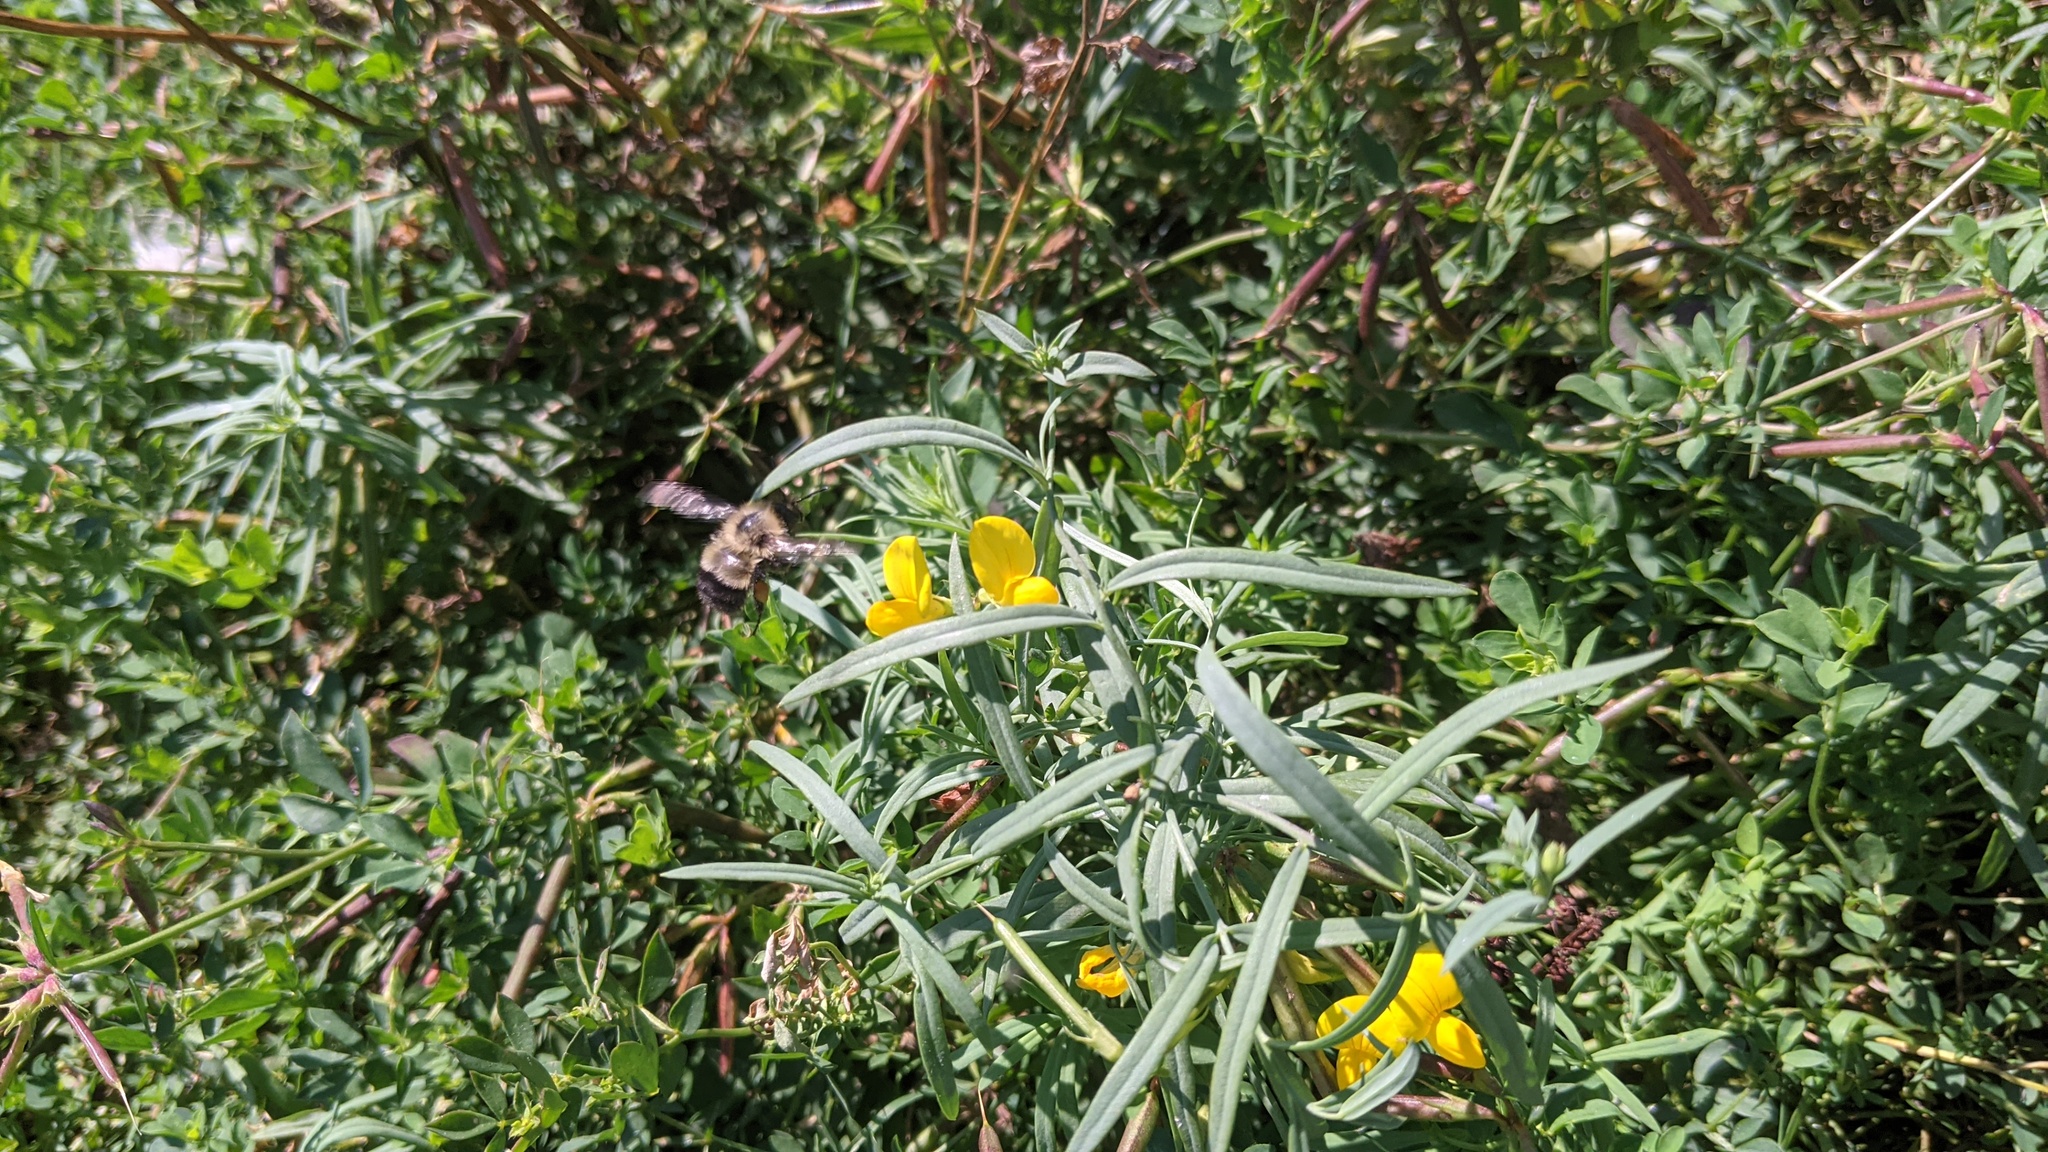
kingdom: Plantae
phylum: Tracheophyta
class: Magnoliopsida
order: Fabales
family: Fabaceae
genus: Lotus
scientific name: Lotus corniculatus
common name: Common bird's-foot-trefoil
